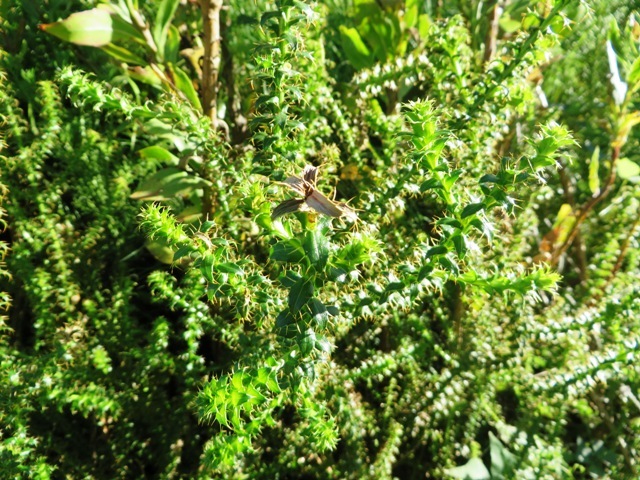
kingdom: Plantae
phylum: Tracheophyta
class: Magnoliopsida
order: Asterales
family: Asteraceae
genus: Cullumia
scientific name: Cullumia setosa
